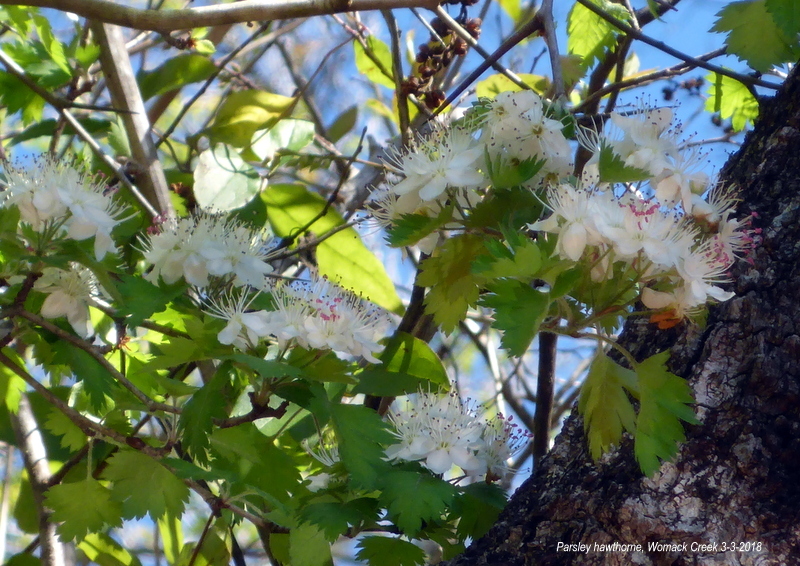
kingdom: Plantae
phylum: Tracheophyta
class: Magnoliopsida
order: Rosales
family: Rosaceae
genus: Crataegus
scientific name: Crataegus marshallii
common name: Parsley-hawthorn
